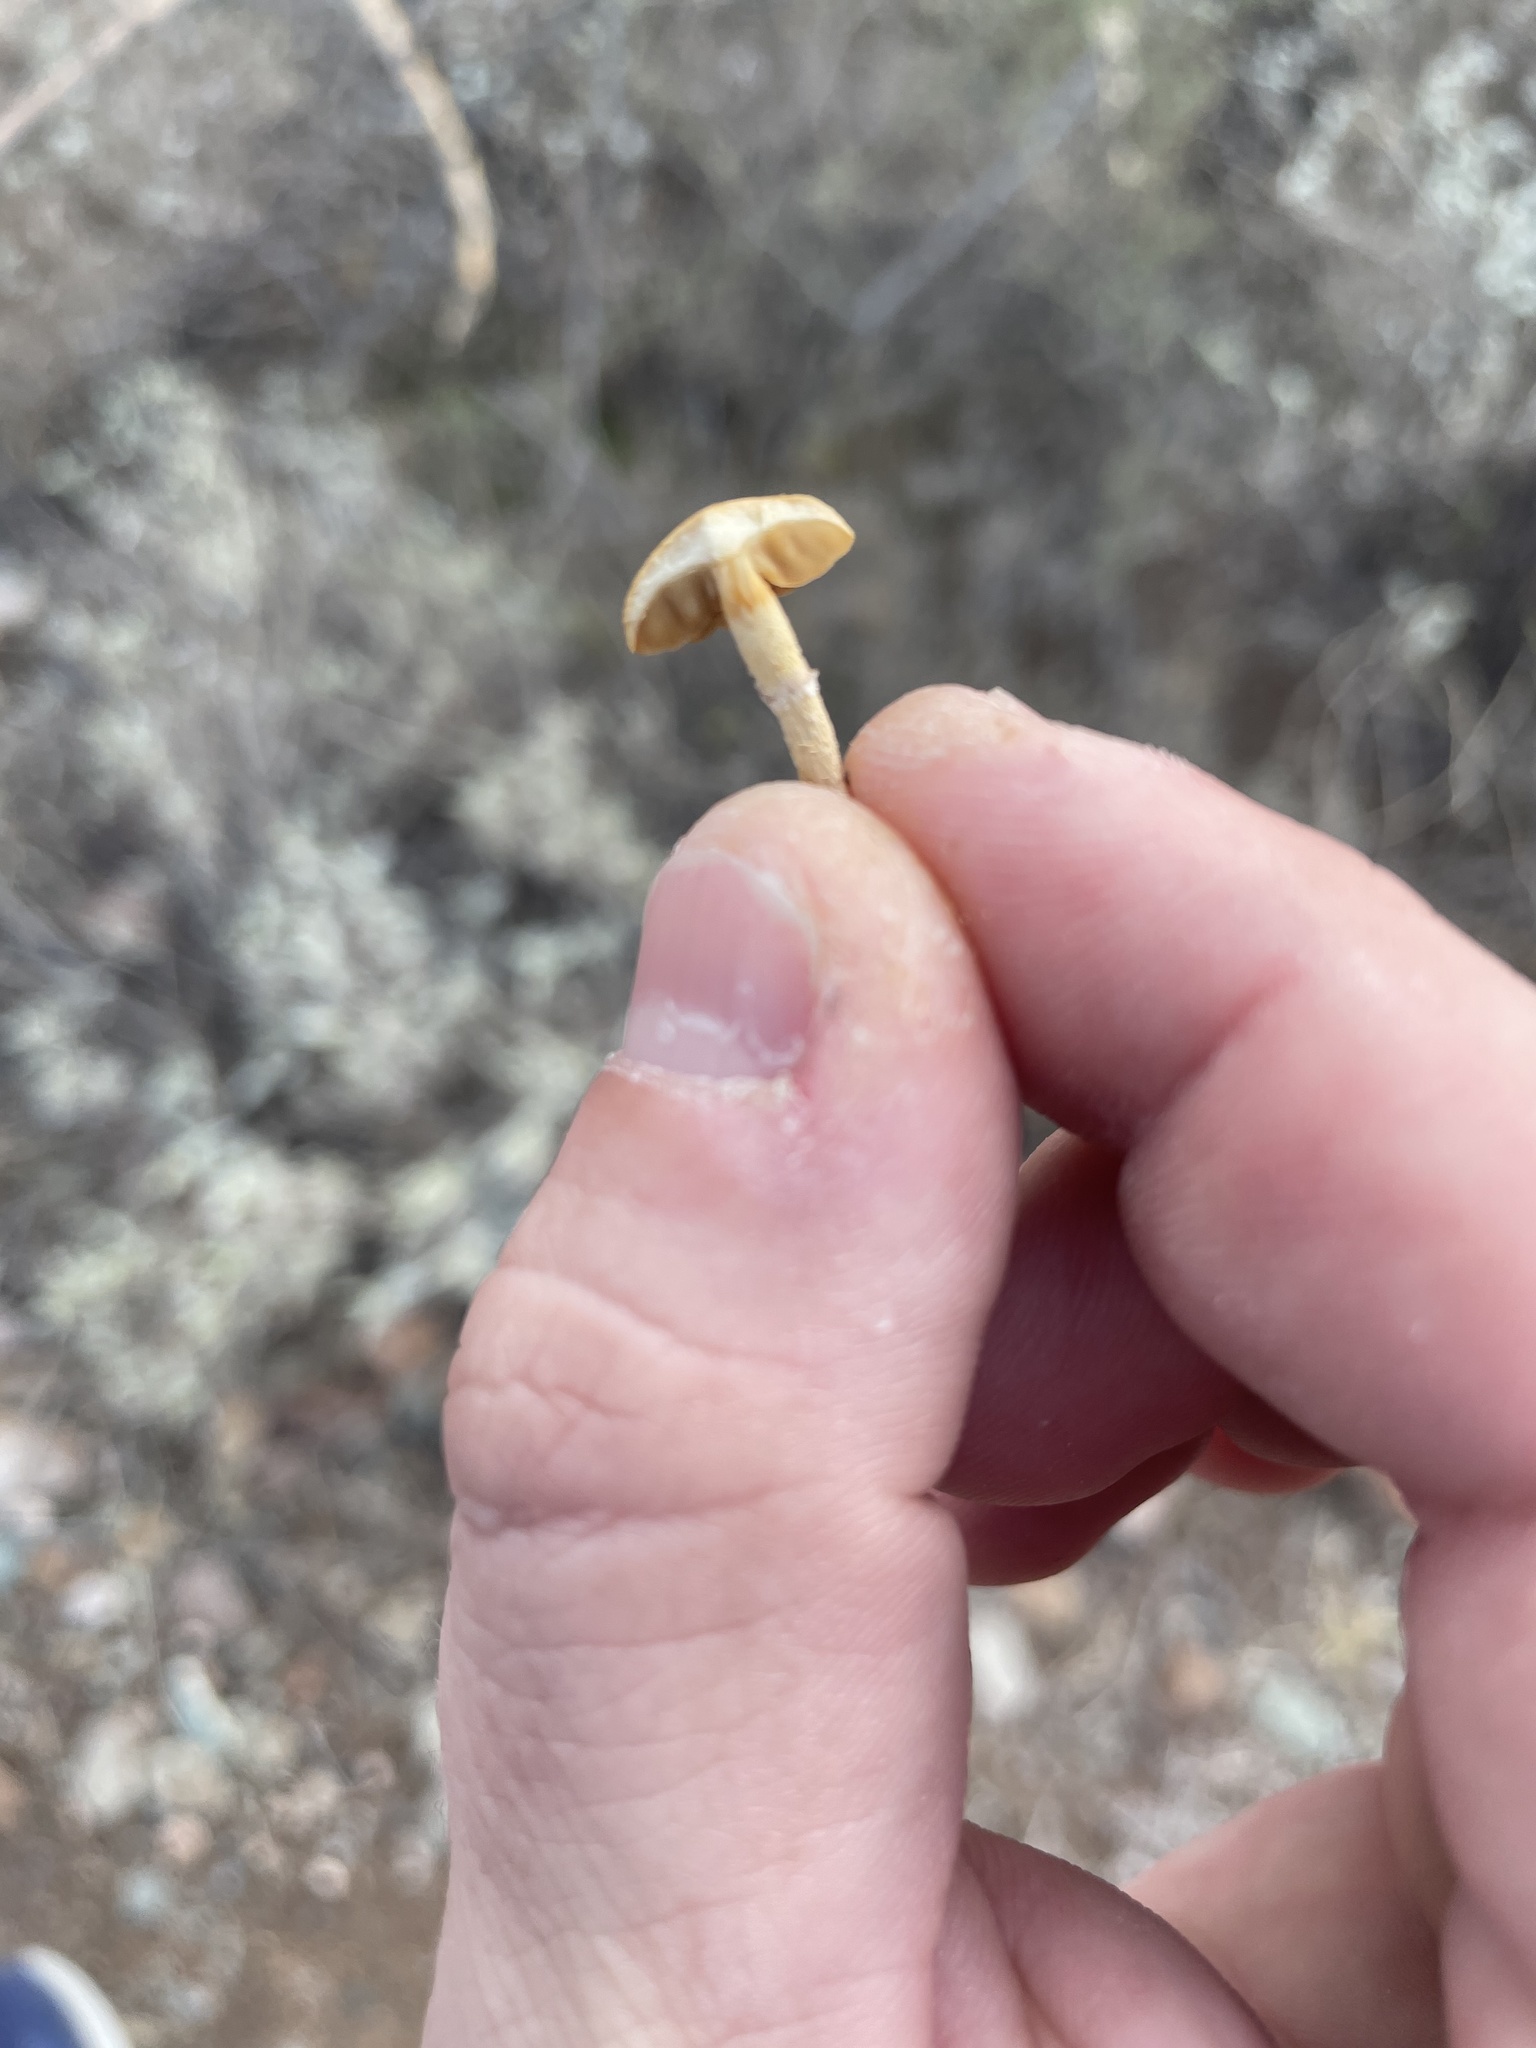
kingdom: Fungi
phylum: Basidiomycota
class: Agaricomycetes
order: Agaricales
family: Strophariaceae
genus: Agrocybe
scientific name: Agrocybe pediades
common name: Common fieldcap
